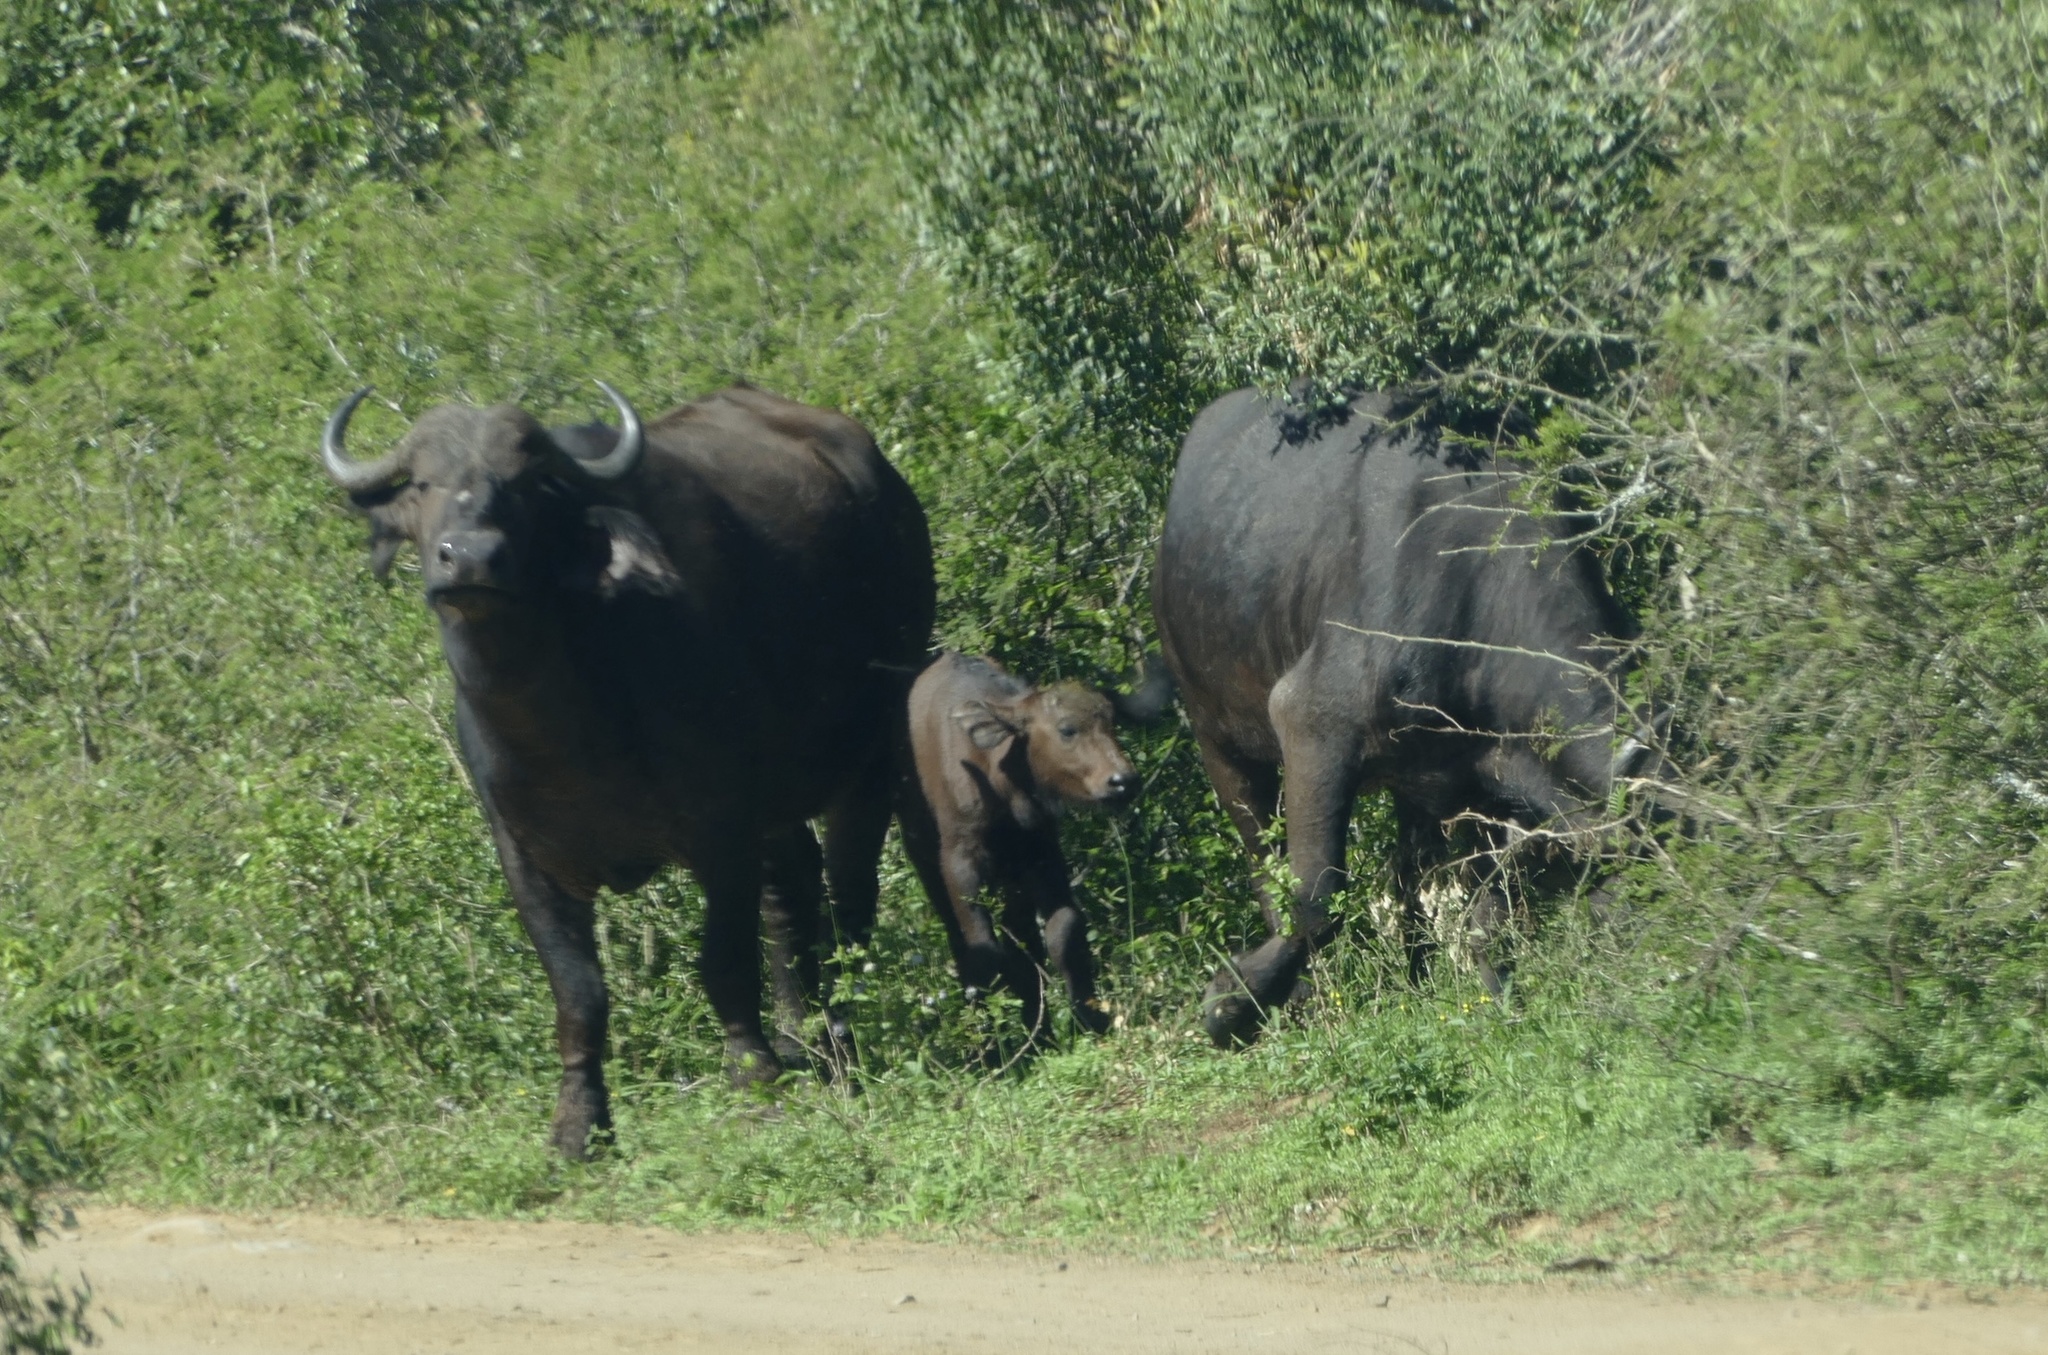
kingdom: Animalia
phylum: Chordata
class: Mammalia
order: Artiodactyla
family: Bovidae
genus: Syncerus
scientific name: Syncerus caffer
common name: African buffalo
